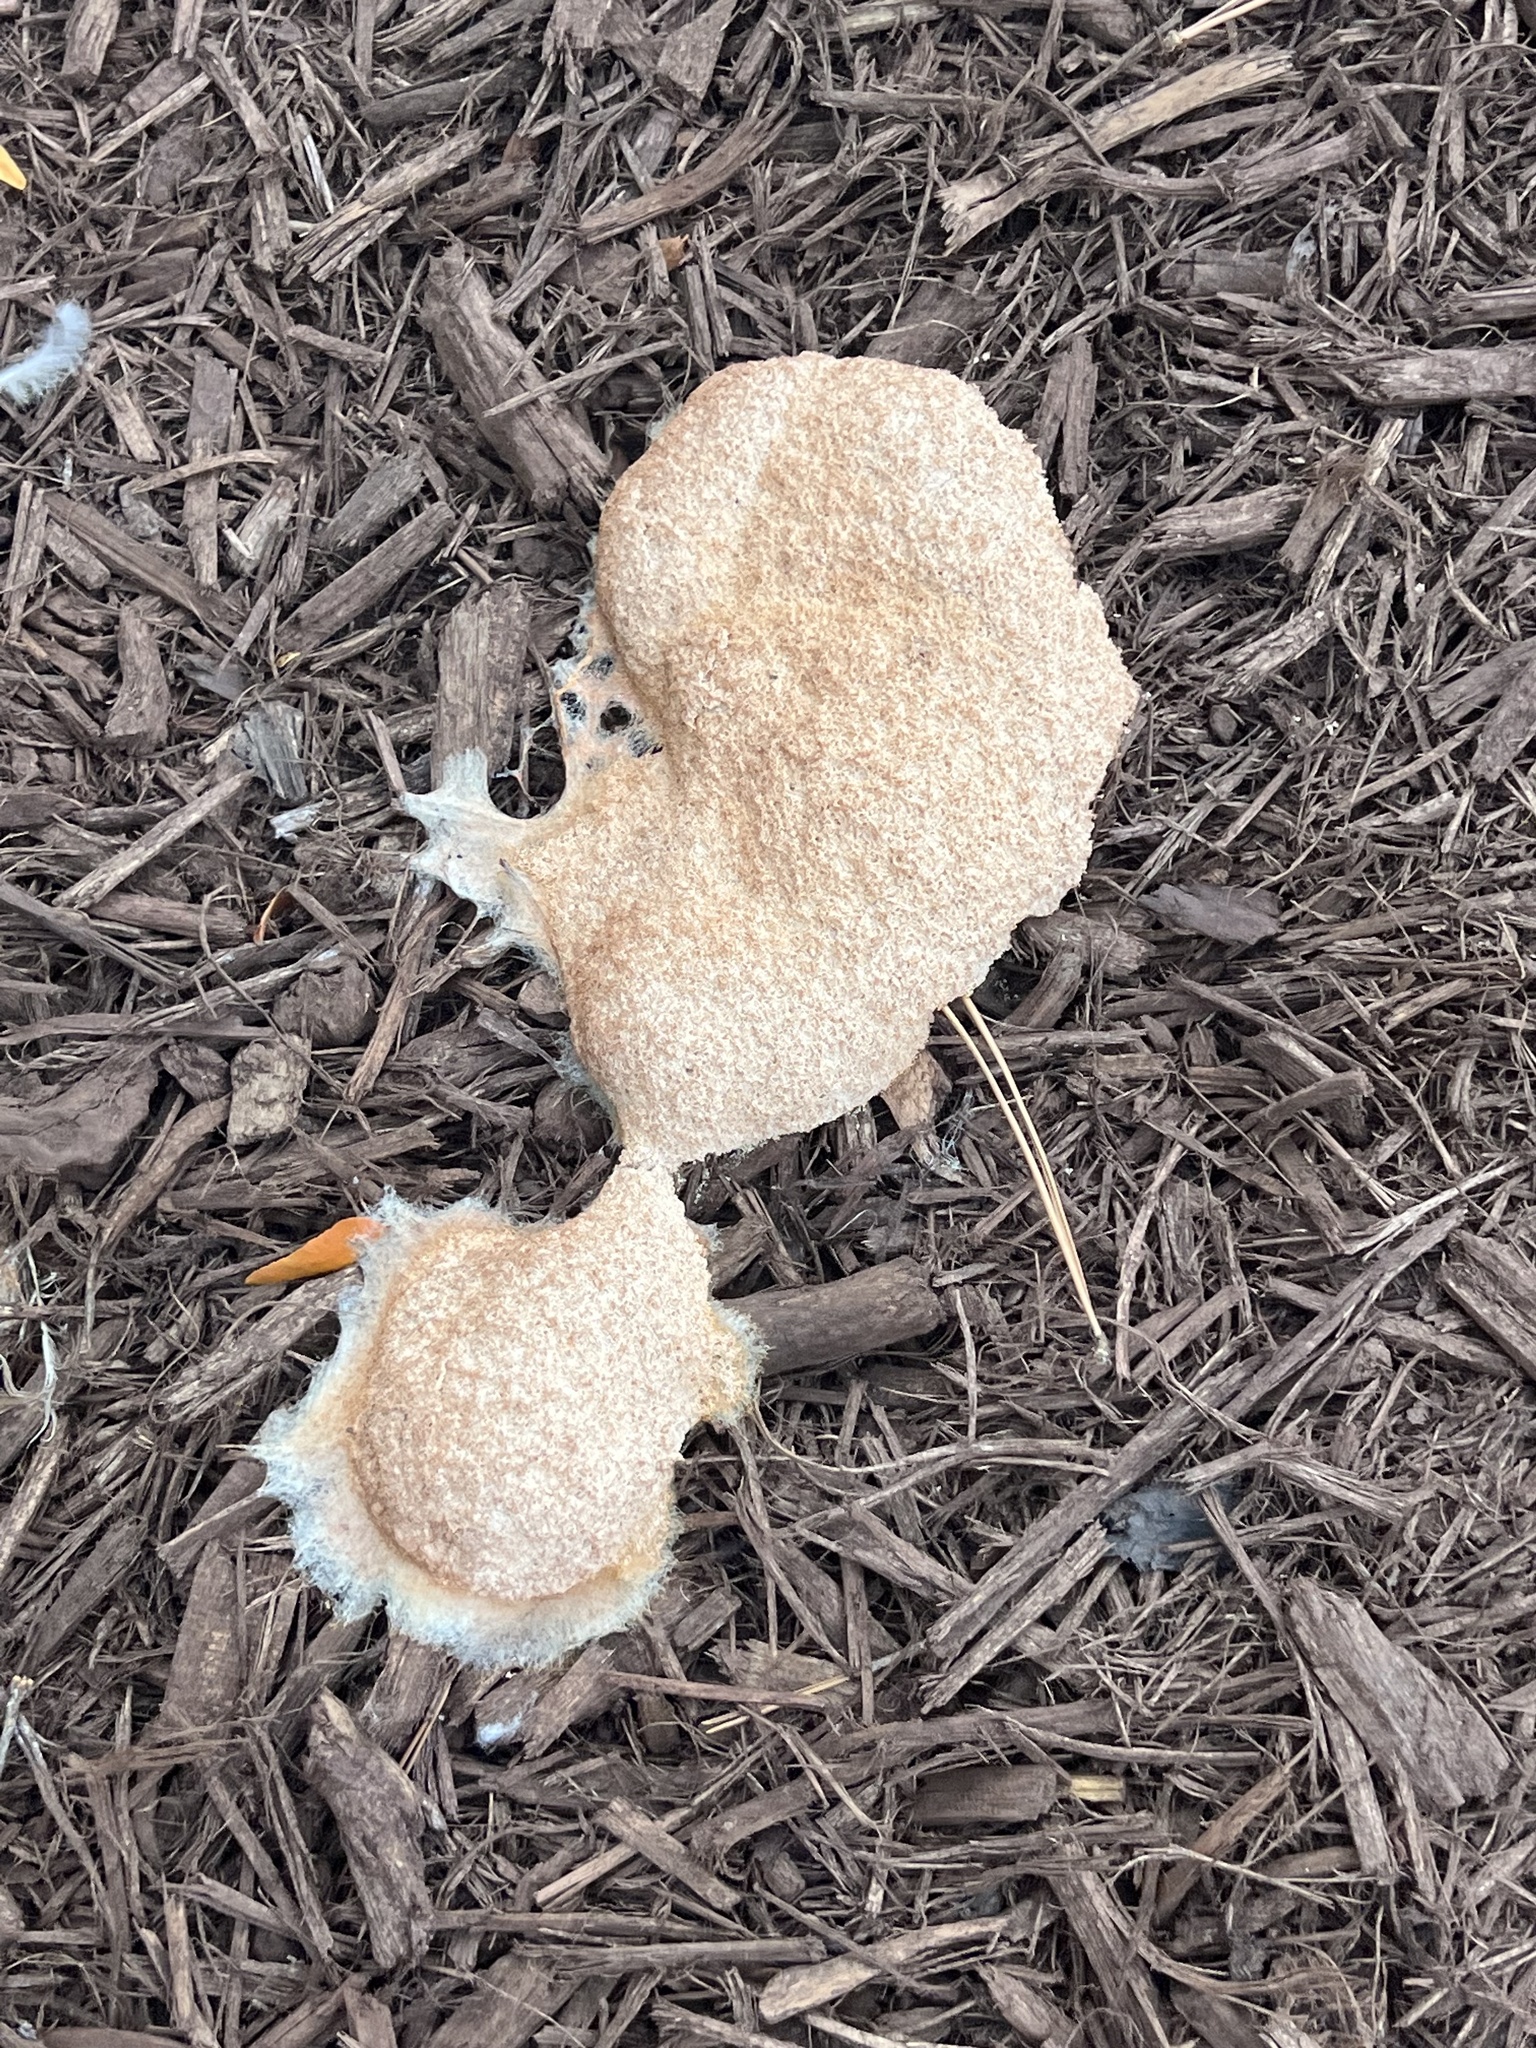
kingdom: Protozoa
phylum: Mycetozoa
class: Myxomycetes
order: Physarales
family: Physaraceae
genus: Fuligo
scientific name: Fuligo septica
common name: Dog vomit slime mold
